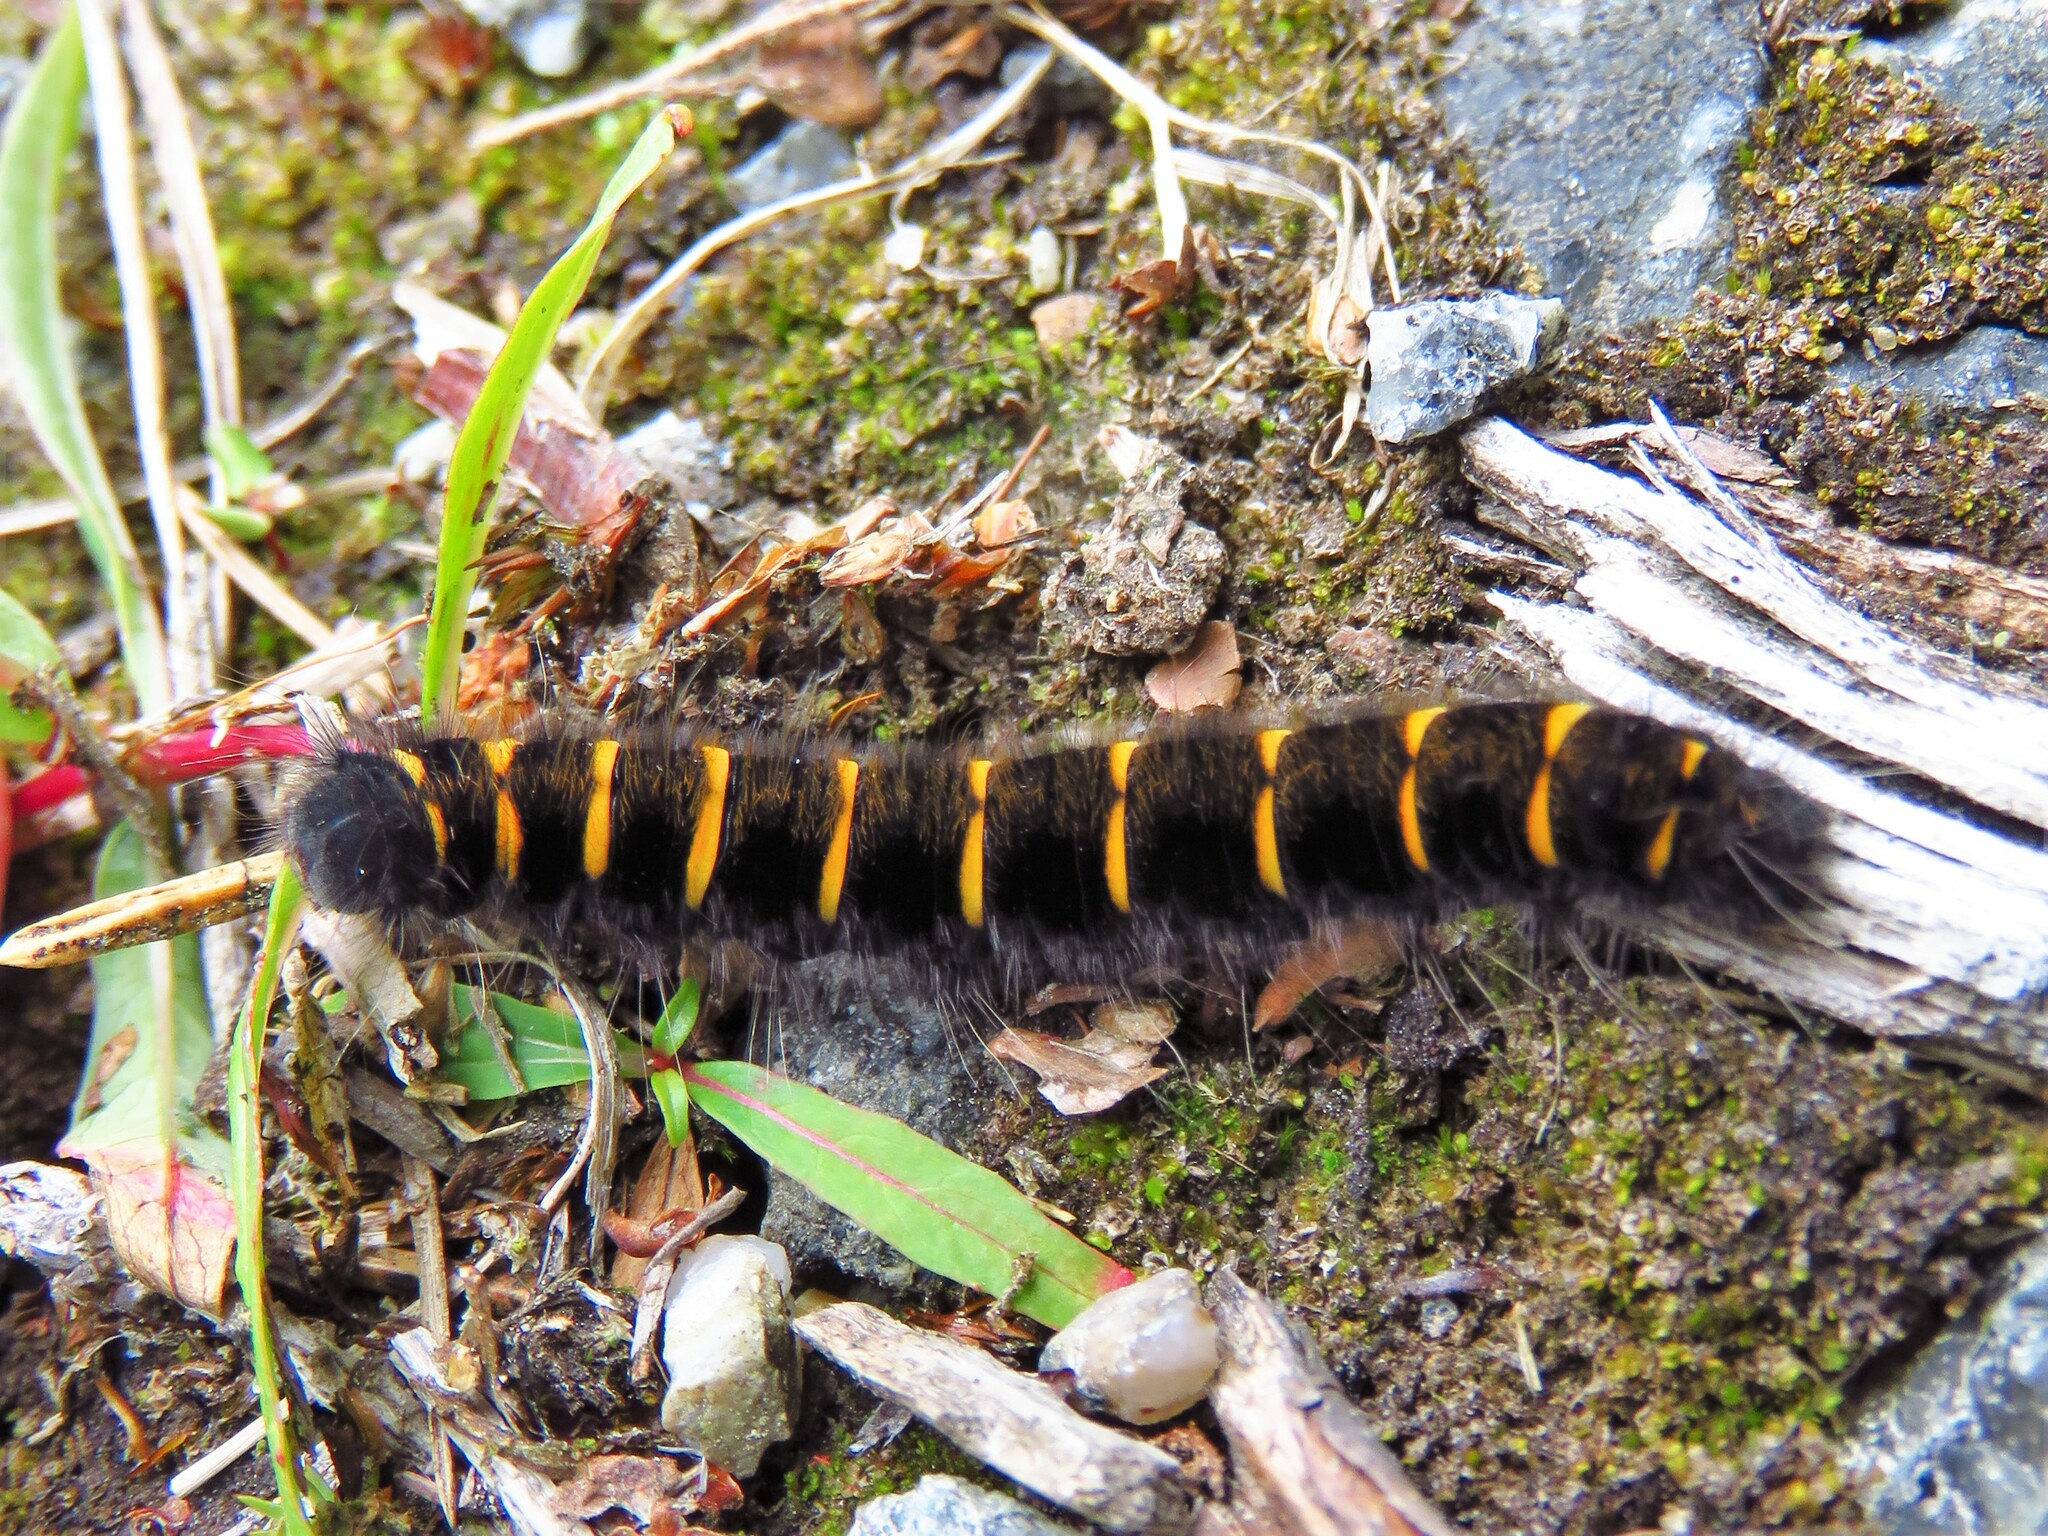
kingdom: Animalia
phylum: Arthropoda
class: Insecta
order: Lepidoptera
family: Lasiocampidae
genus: Macrothylacia
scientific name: Macrothylacia rubi
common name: Fox moth
